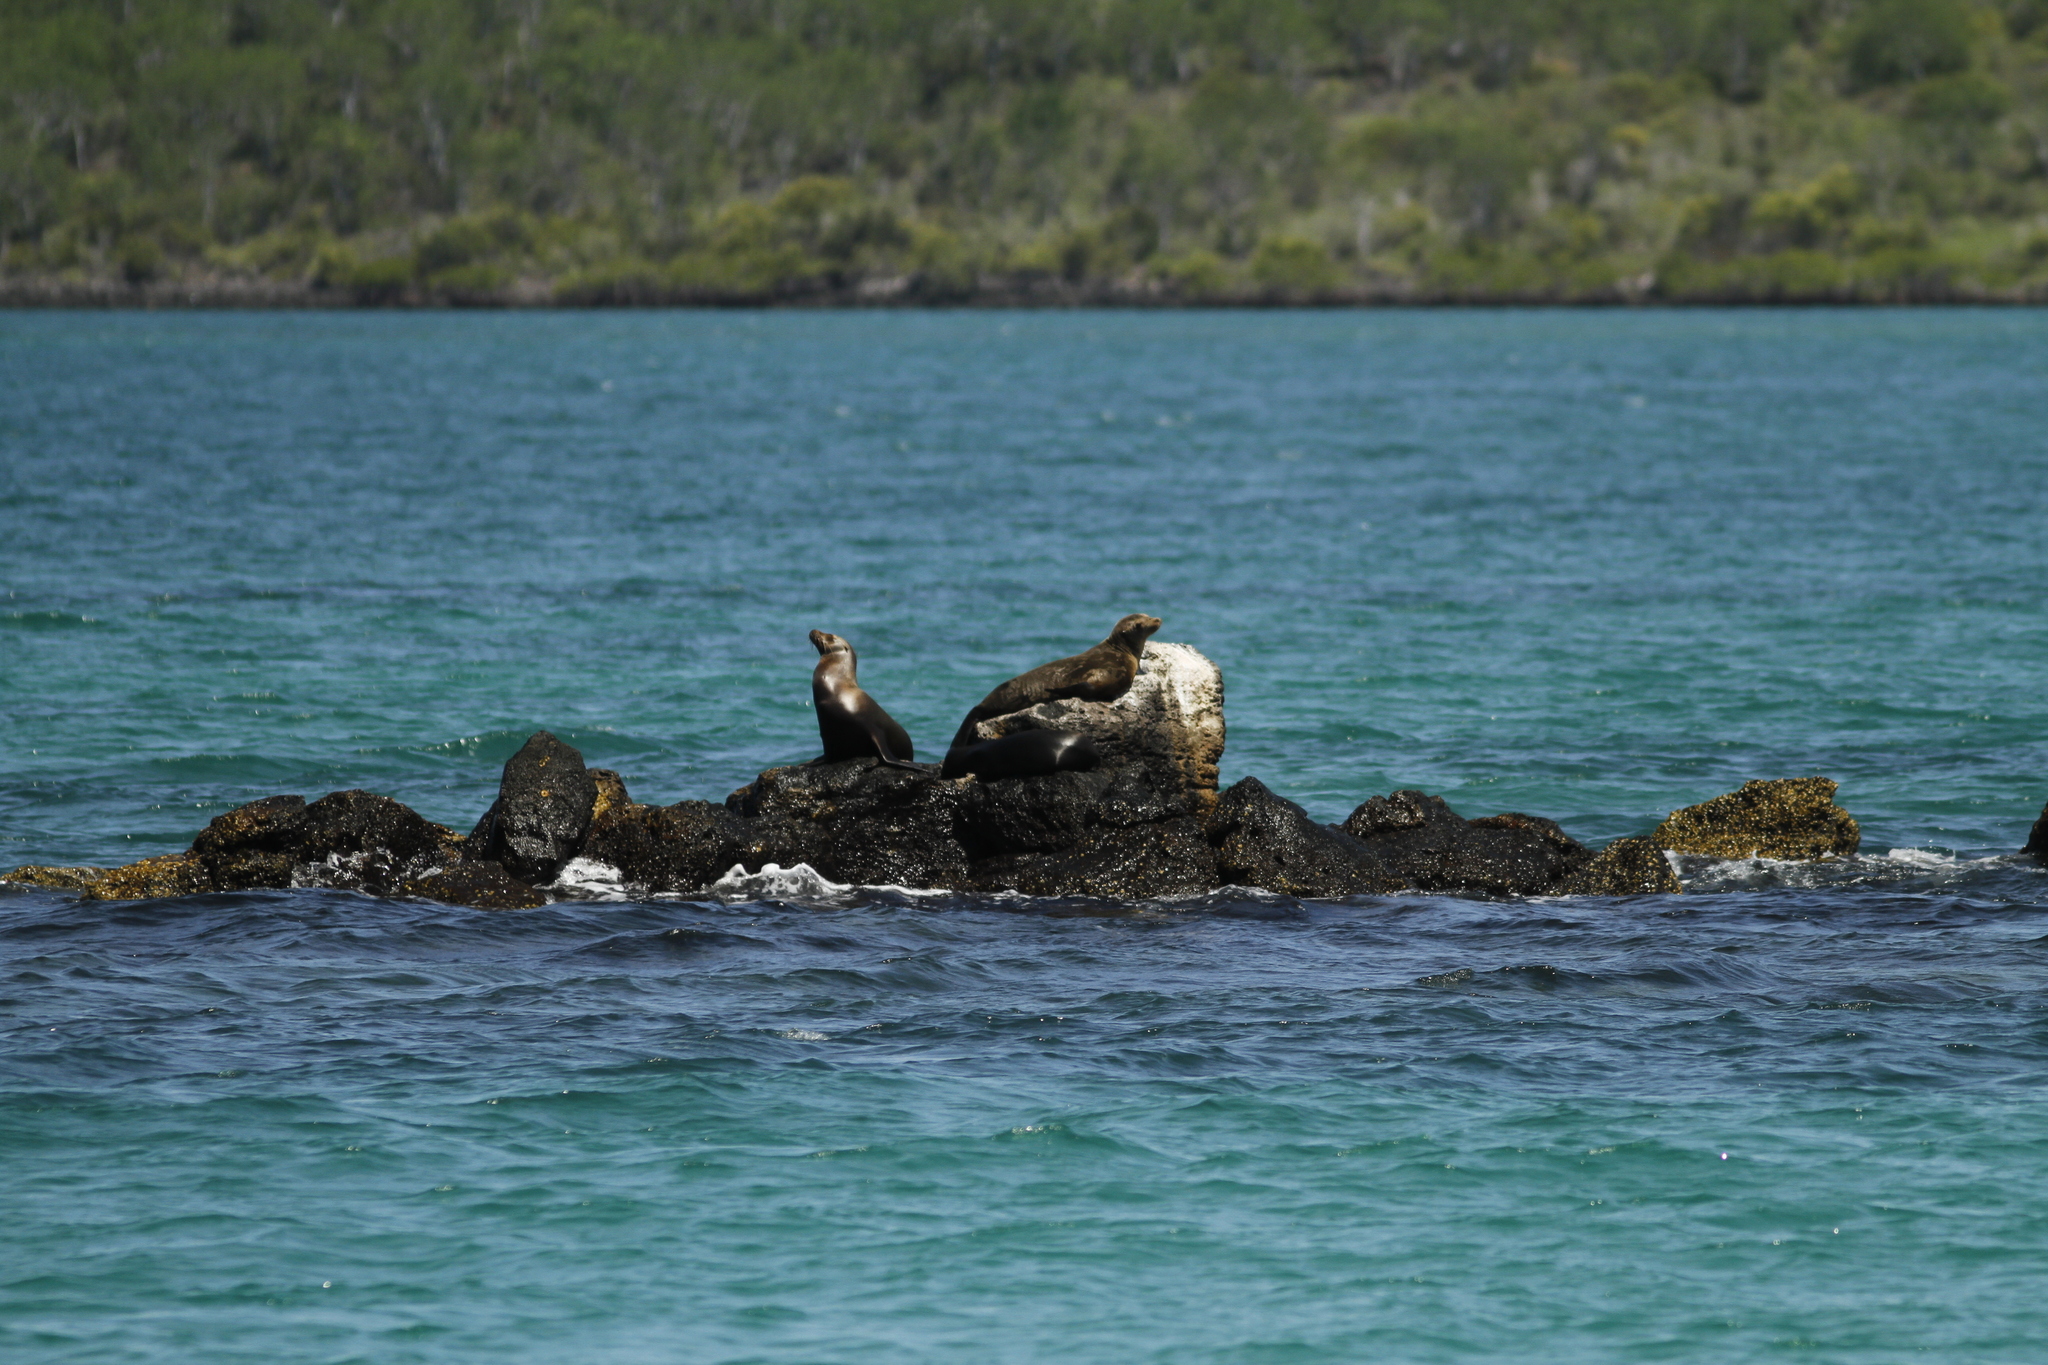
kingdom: Animalia
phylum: Chordata
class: Mammalia
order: Carnivora
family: Otariidae
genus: Zalophus
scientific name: Zalophus wollebaeki
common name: Galapagos sea lion
